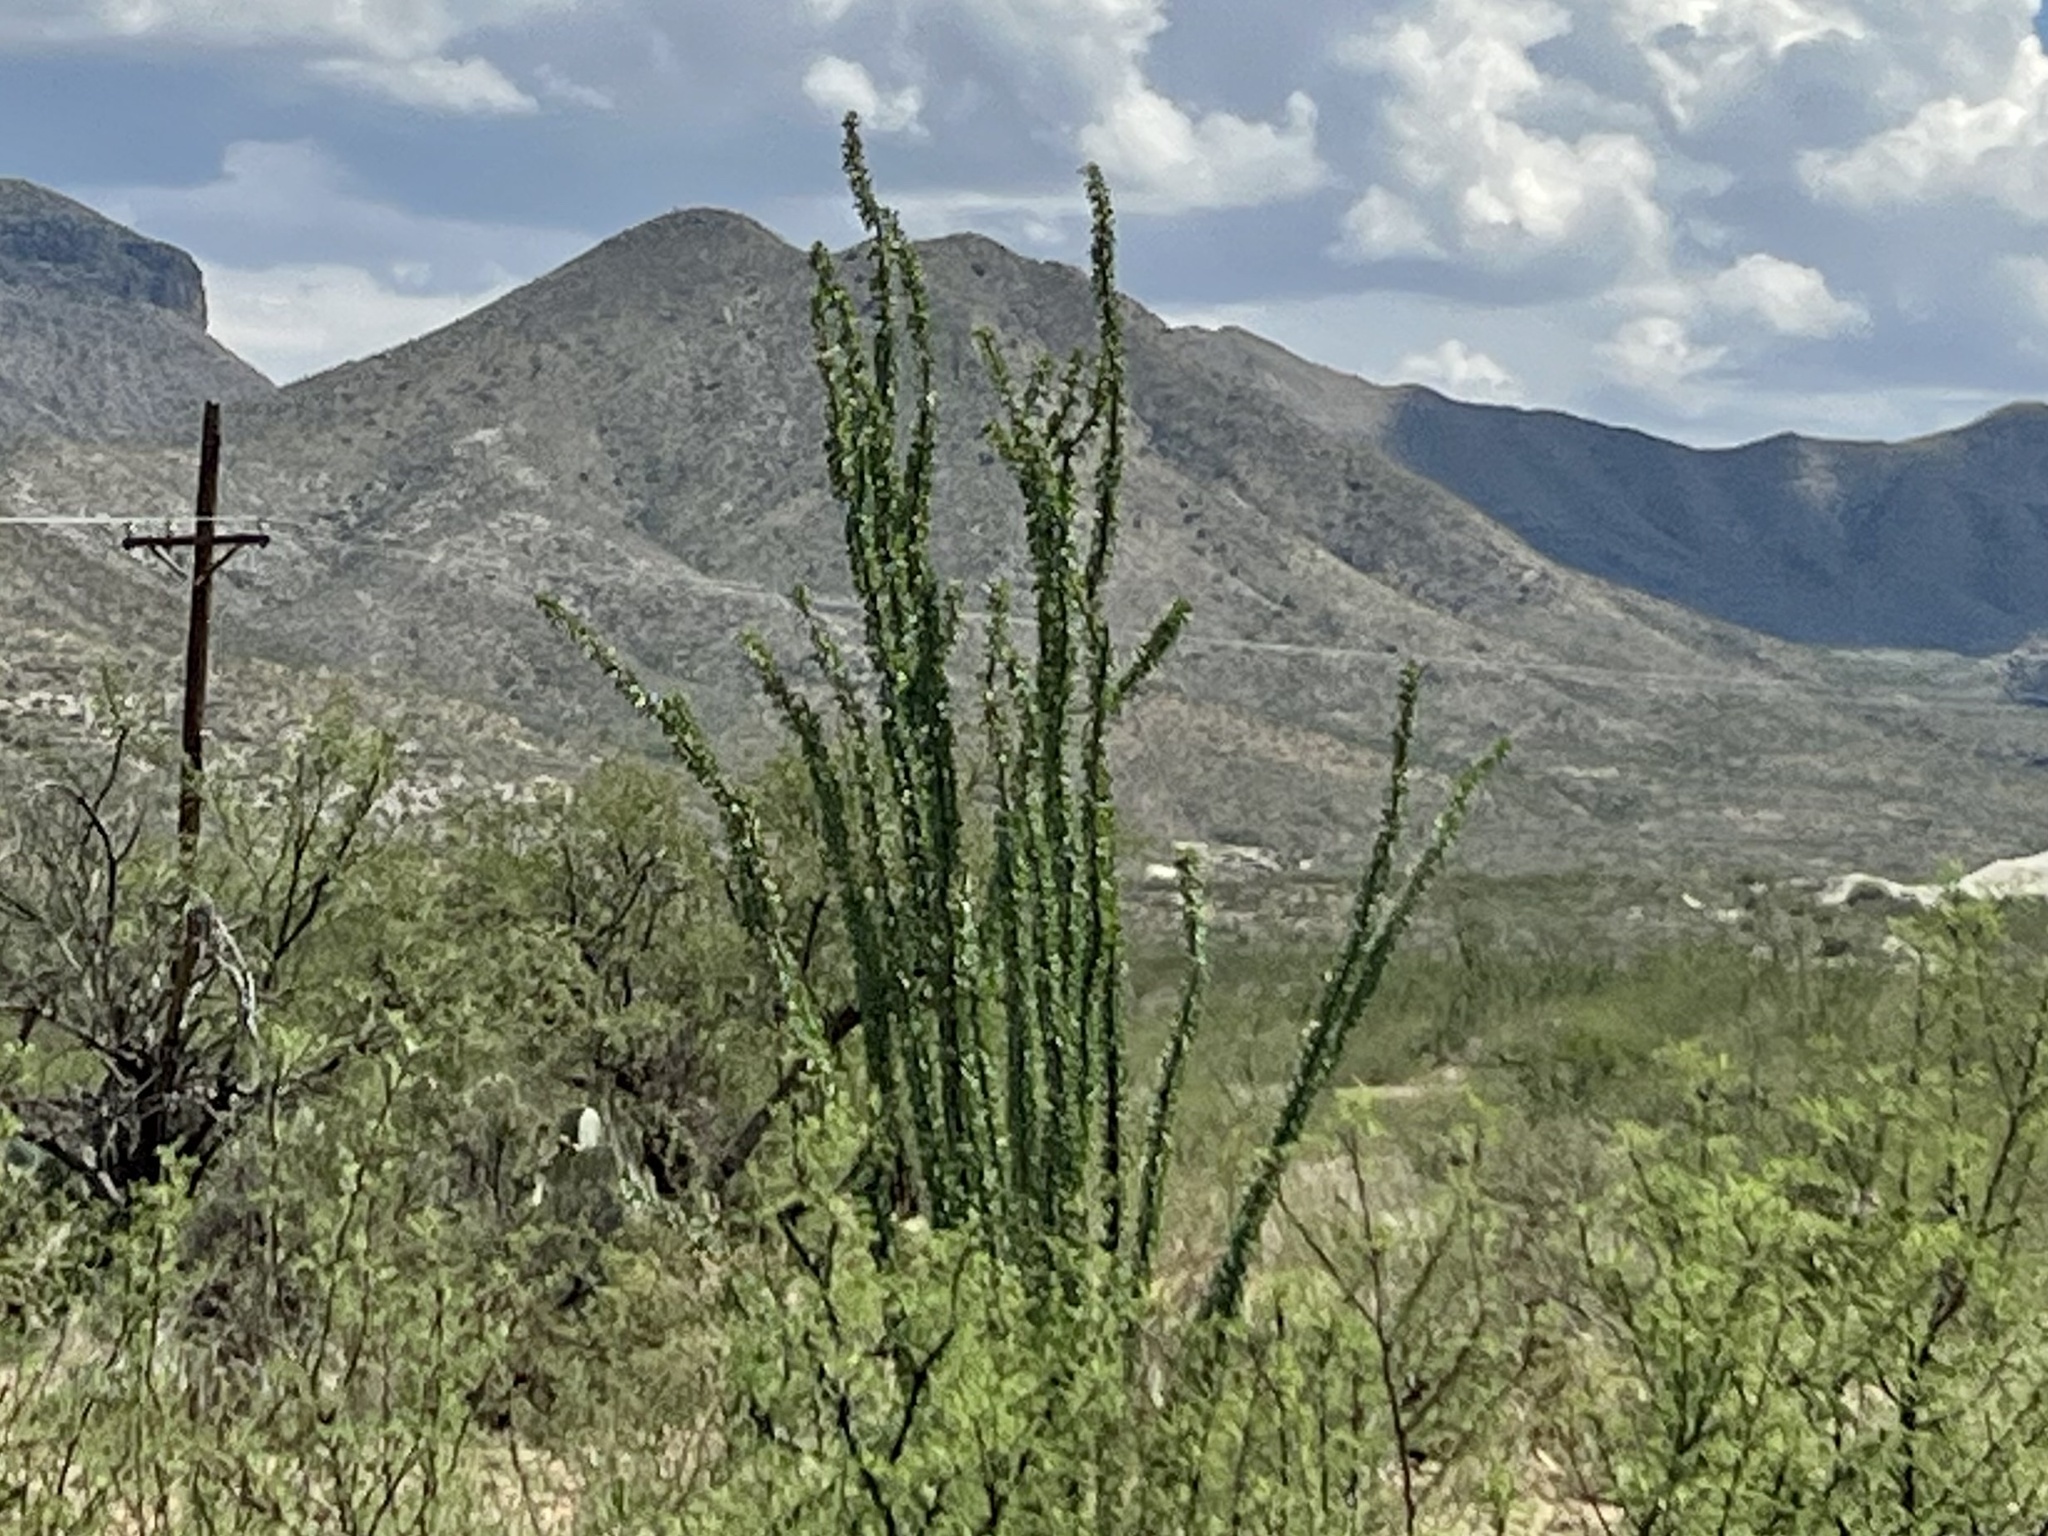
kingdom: Plantae
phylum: Tracheophyta
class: Magnoliopsida
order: Ericales
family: Fouquieriaceae
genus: Fouquieria
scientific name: Fouquieria splendens
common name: Vine-cactus
